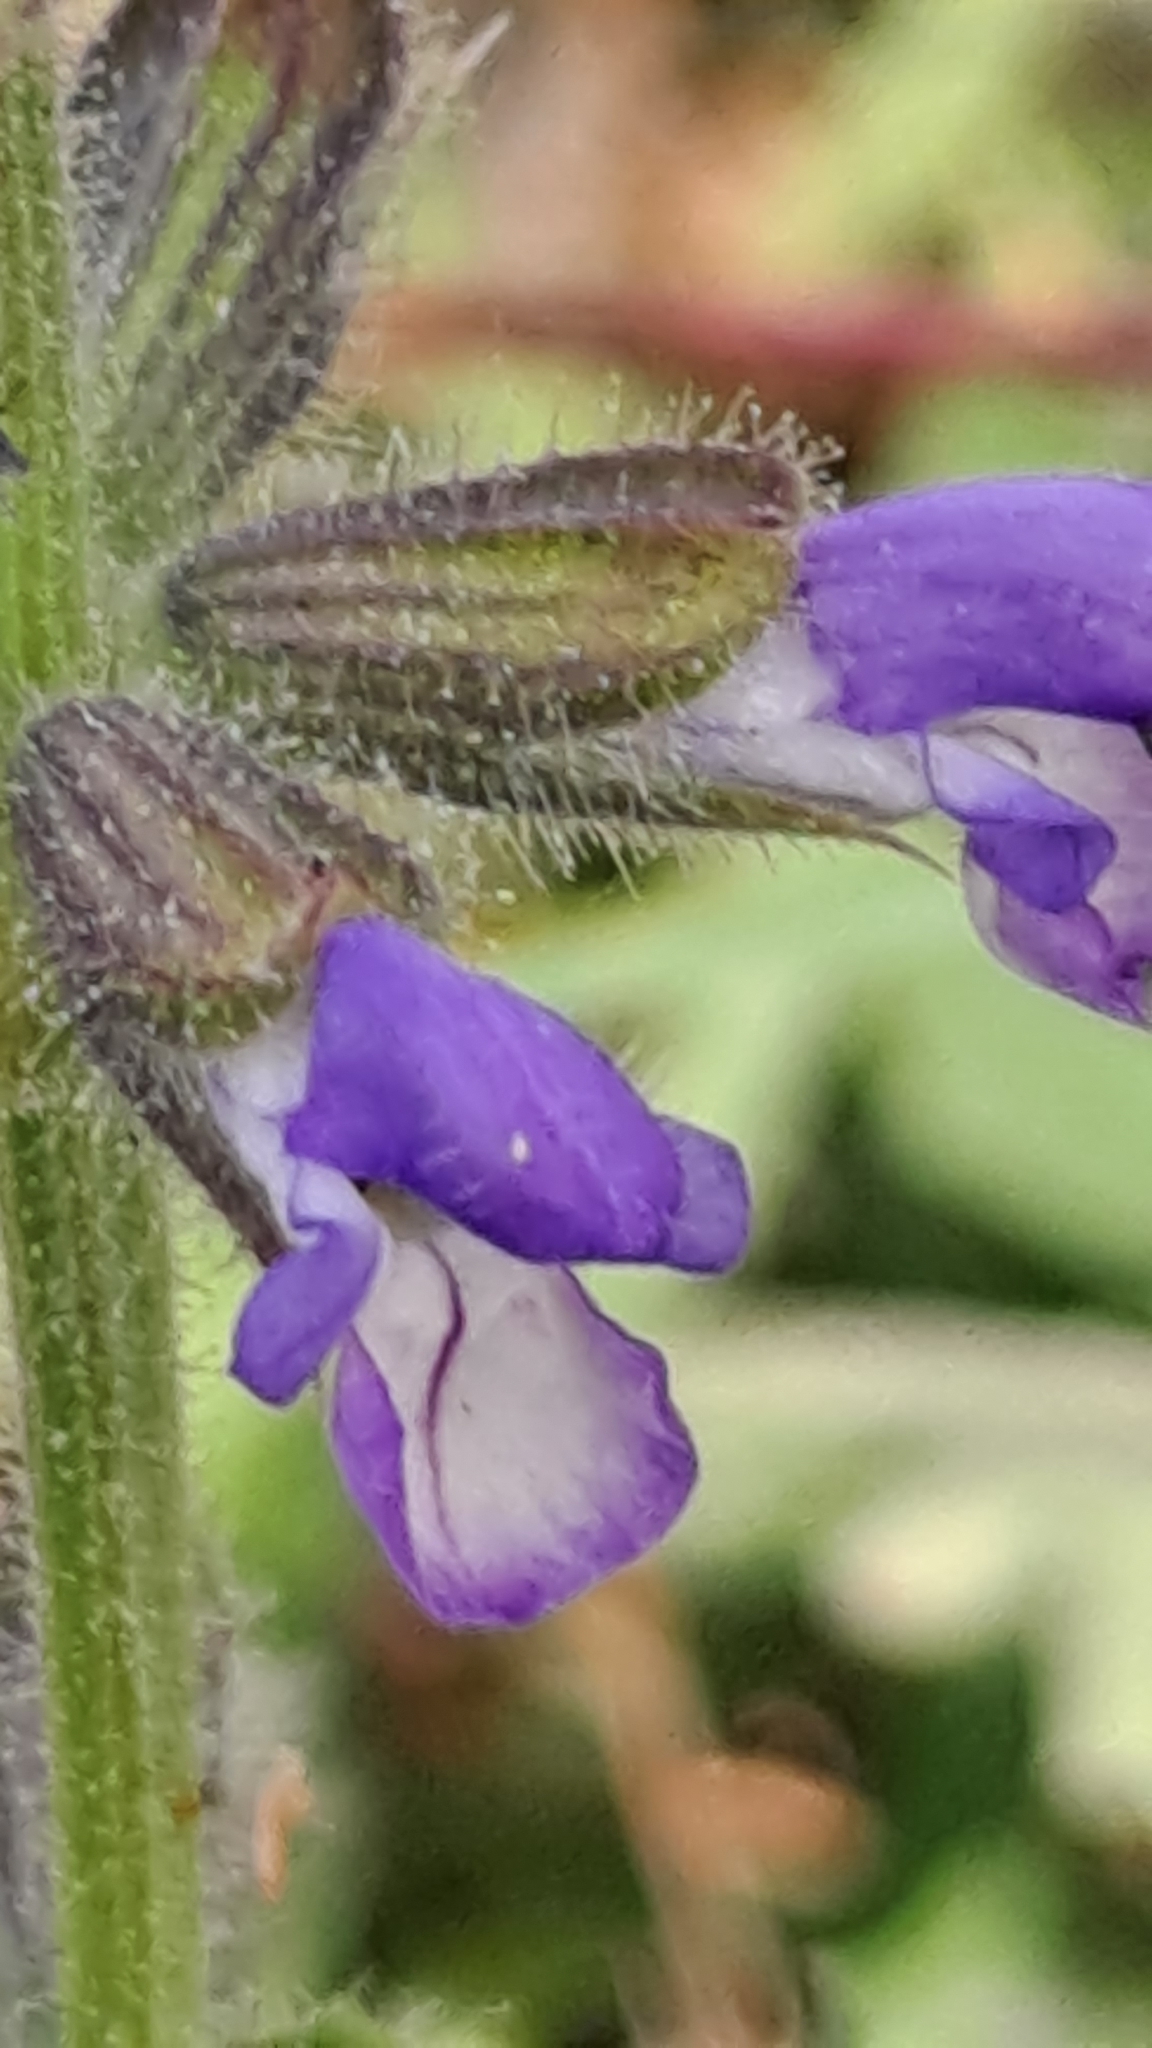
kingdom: Plantae
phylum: Tracheophyta
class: Magnoliopsida
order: Lamiales
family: Lamiaceae
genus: Salvia
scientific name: Salvia verbenaca
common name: Wild clary
